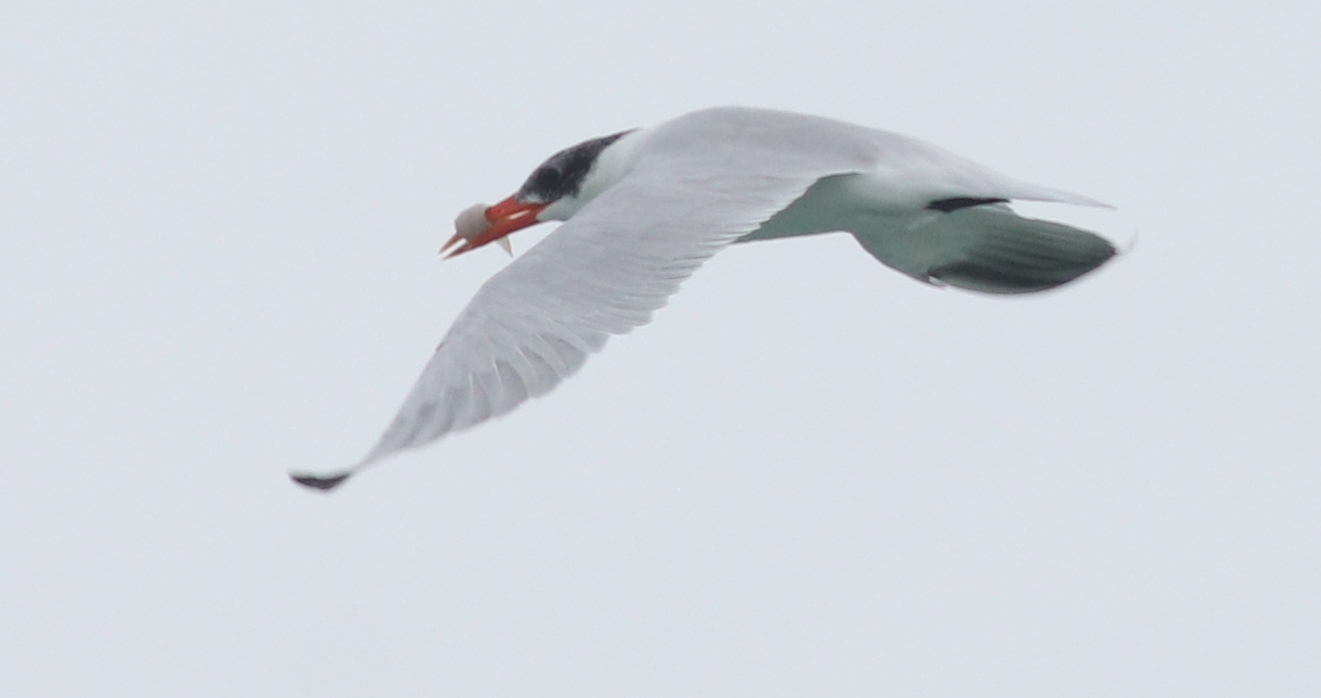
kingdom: Animalia
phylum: Chordata
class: Aves
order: Charadriiformes
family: Laridae
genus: Hydroprogne
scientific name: Hydroprogne caspia
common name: Caspian tern
